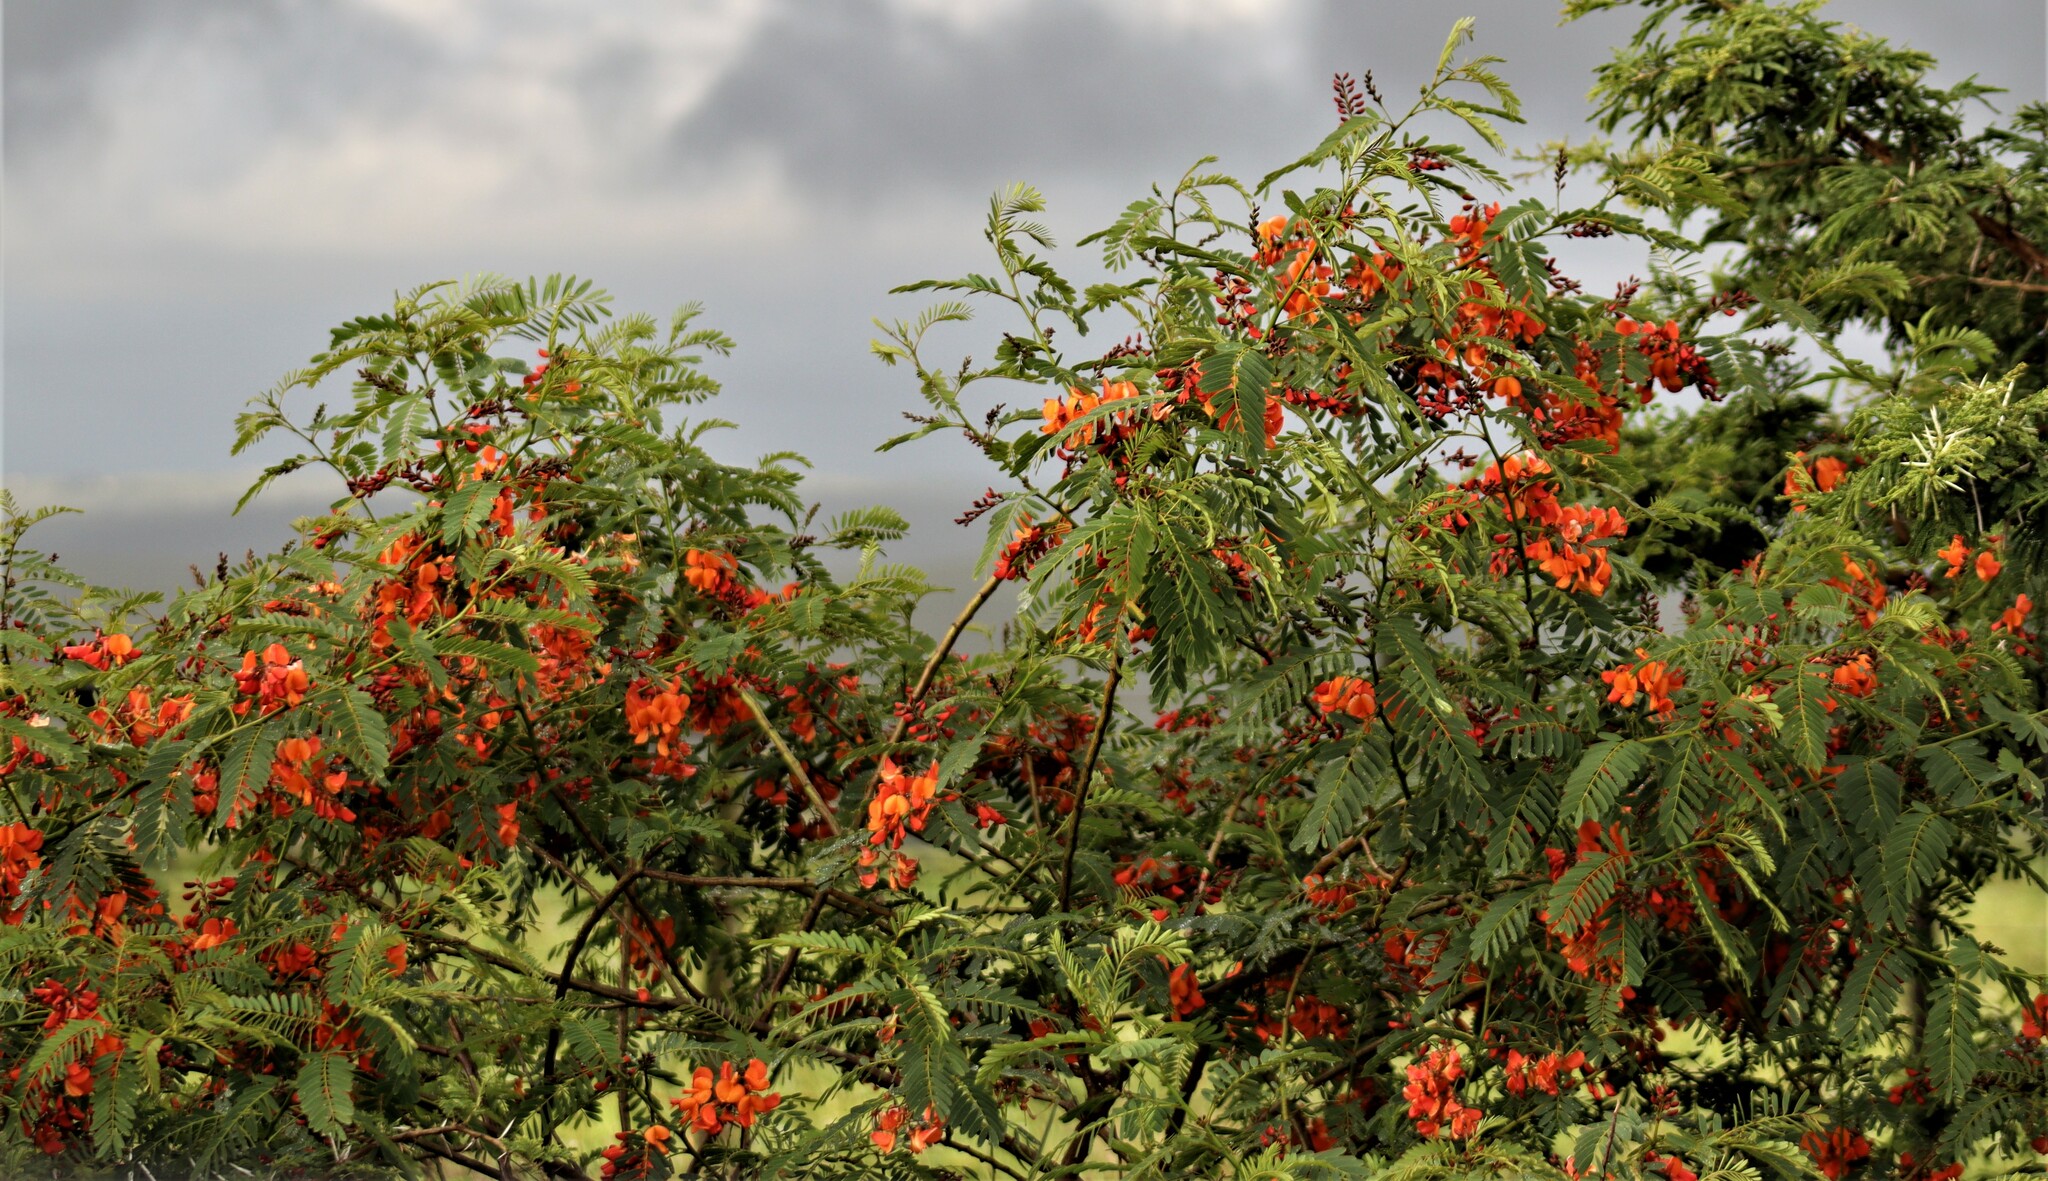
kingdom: Plantae
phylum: Tracheophyta
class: Magnoliopsida
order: Fabales
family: Fabaceae
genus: Sesbania
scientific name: Sesbania punicea
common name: Rattlebox
